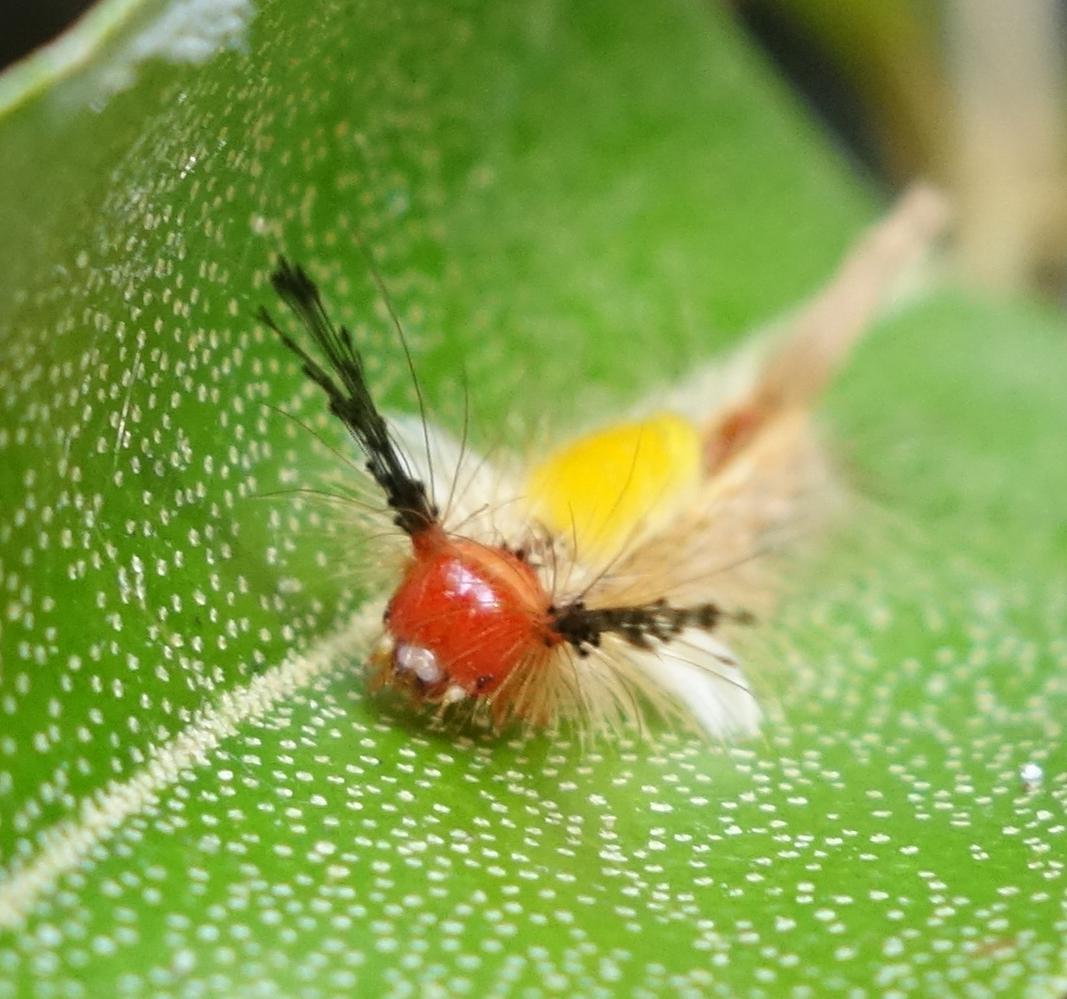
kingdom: Animalia
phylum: Arthropoda
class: Insecta
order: Lepidoptera
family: Erebidae
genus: Orgyia
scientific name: Orgyia postica
